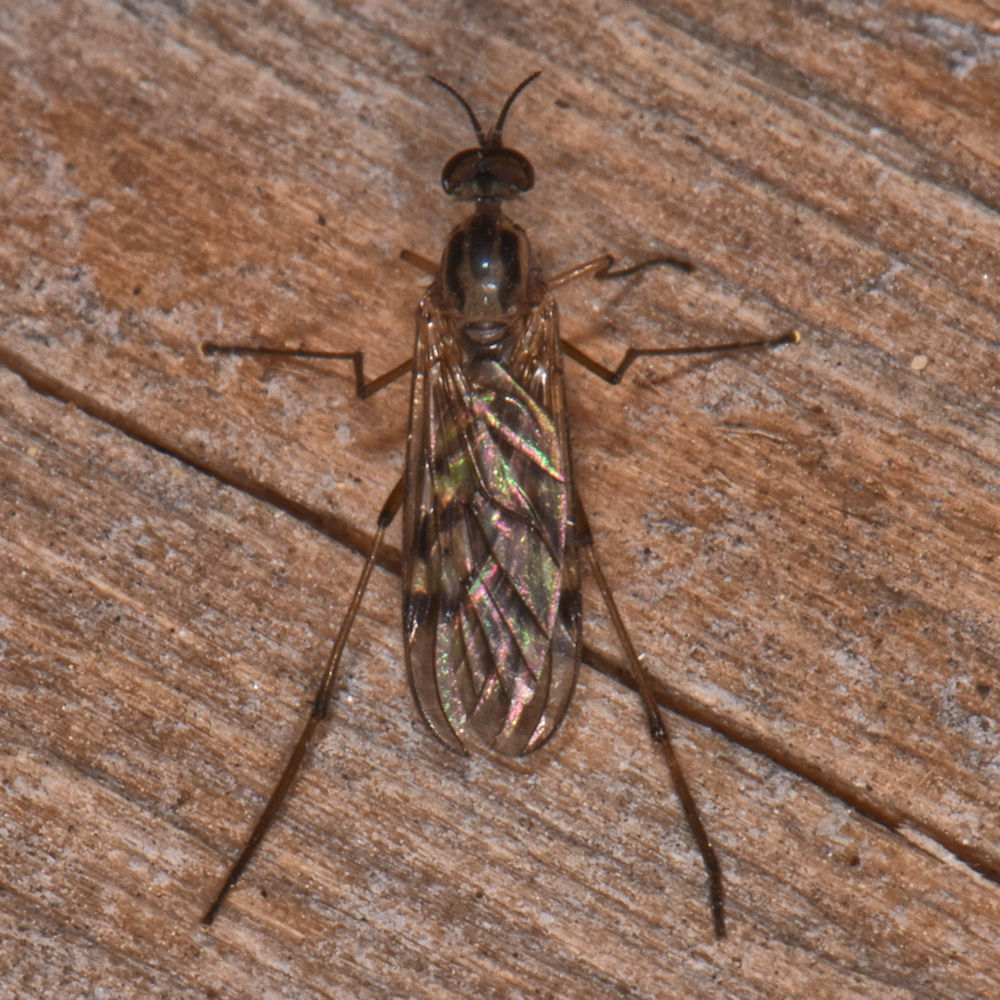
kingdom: Animalia
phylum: Arthropoda
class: Insecta
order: Diptera
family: Anisopodidae
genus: Sylvicola
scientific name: Sylvicola punctatus
